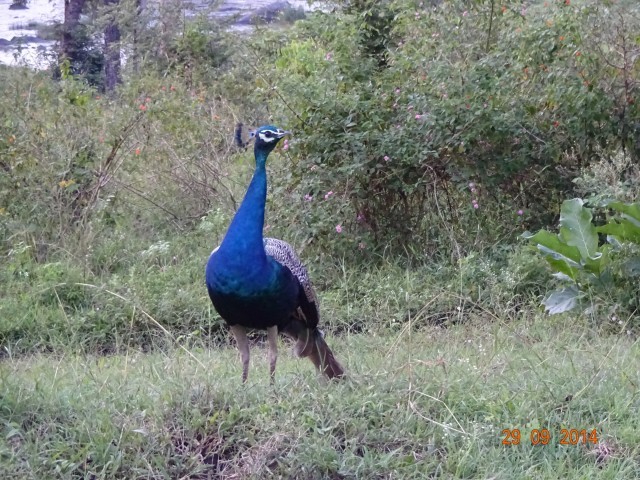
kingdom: Animalia
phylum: Chordata
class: Aves
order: Galliformes
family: Phasianidae
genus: Pavo
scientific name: Pavo cristatus
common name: Indian peafowl
